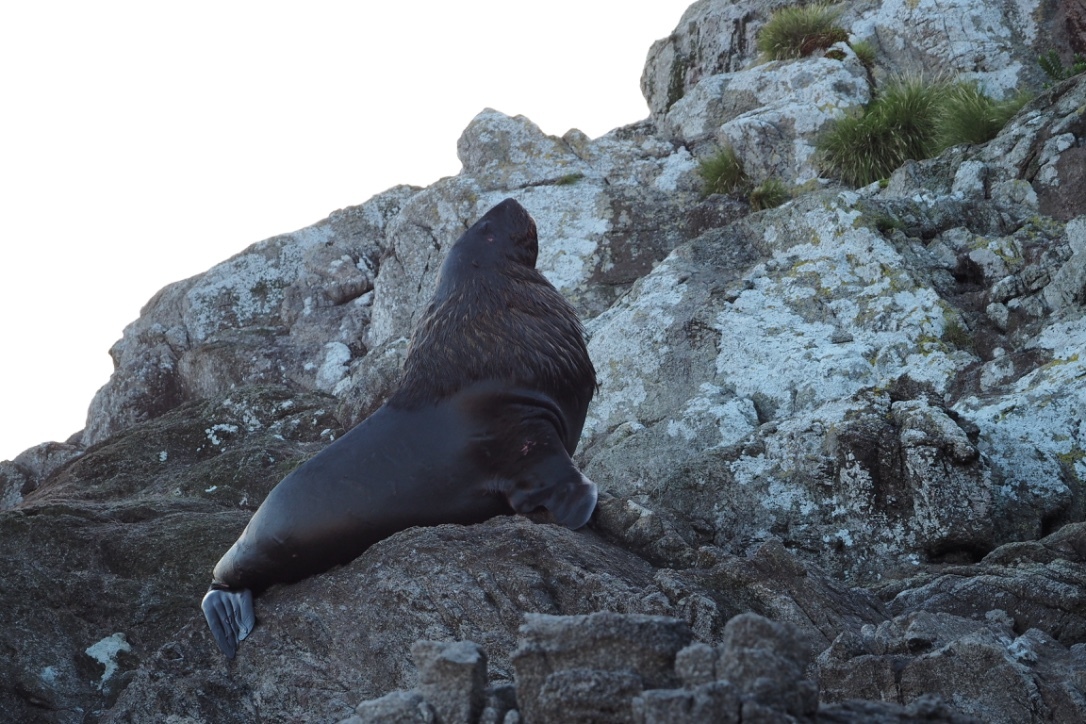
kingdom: Animalia
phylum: Chordata
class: Mammalia
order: Carnivora
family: Otariidae
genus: Phocarctos
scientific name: Phocarctos hookeri
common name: New zealand sea lion
